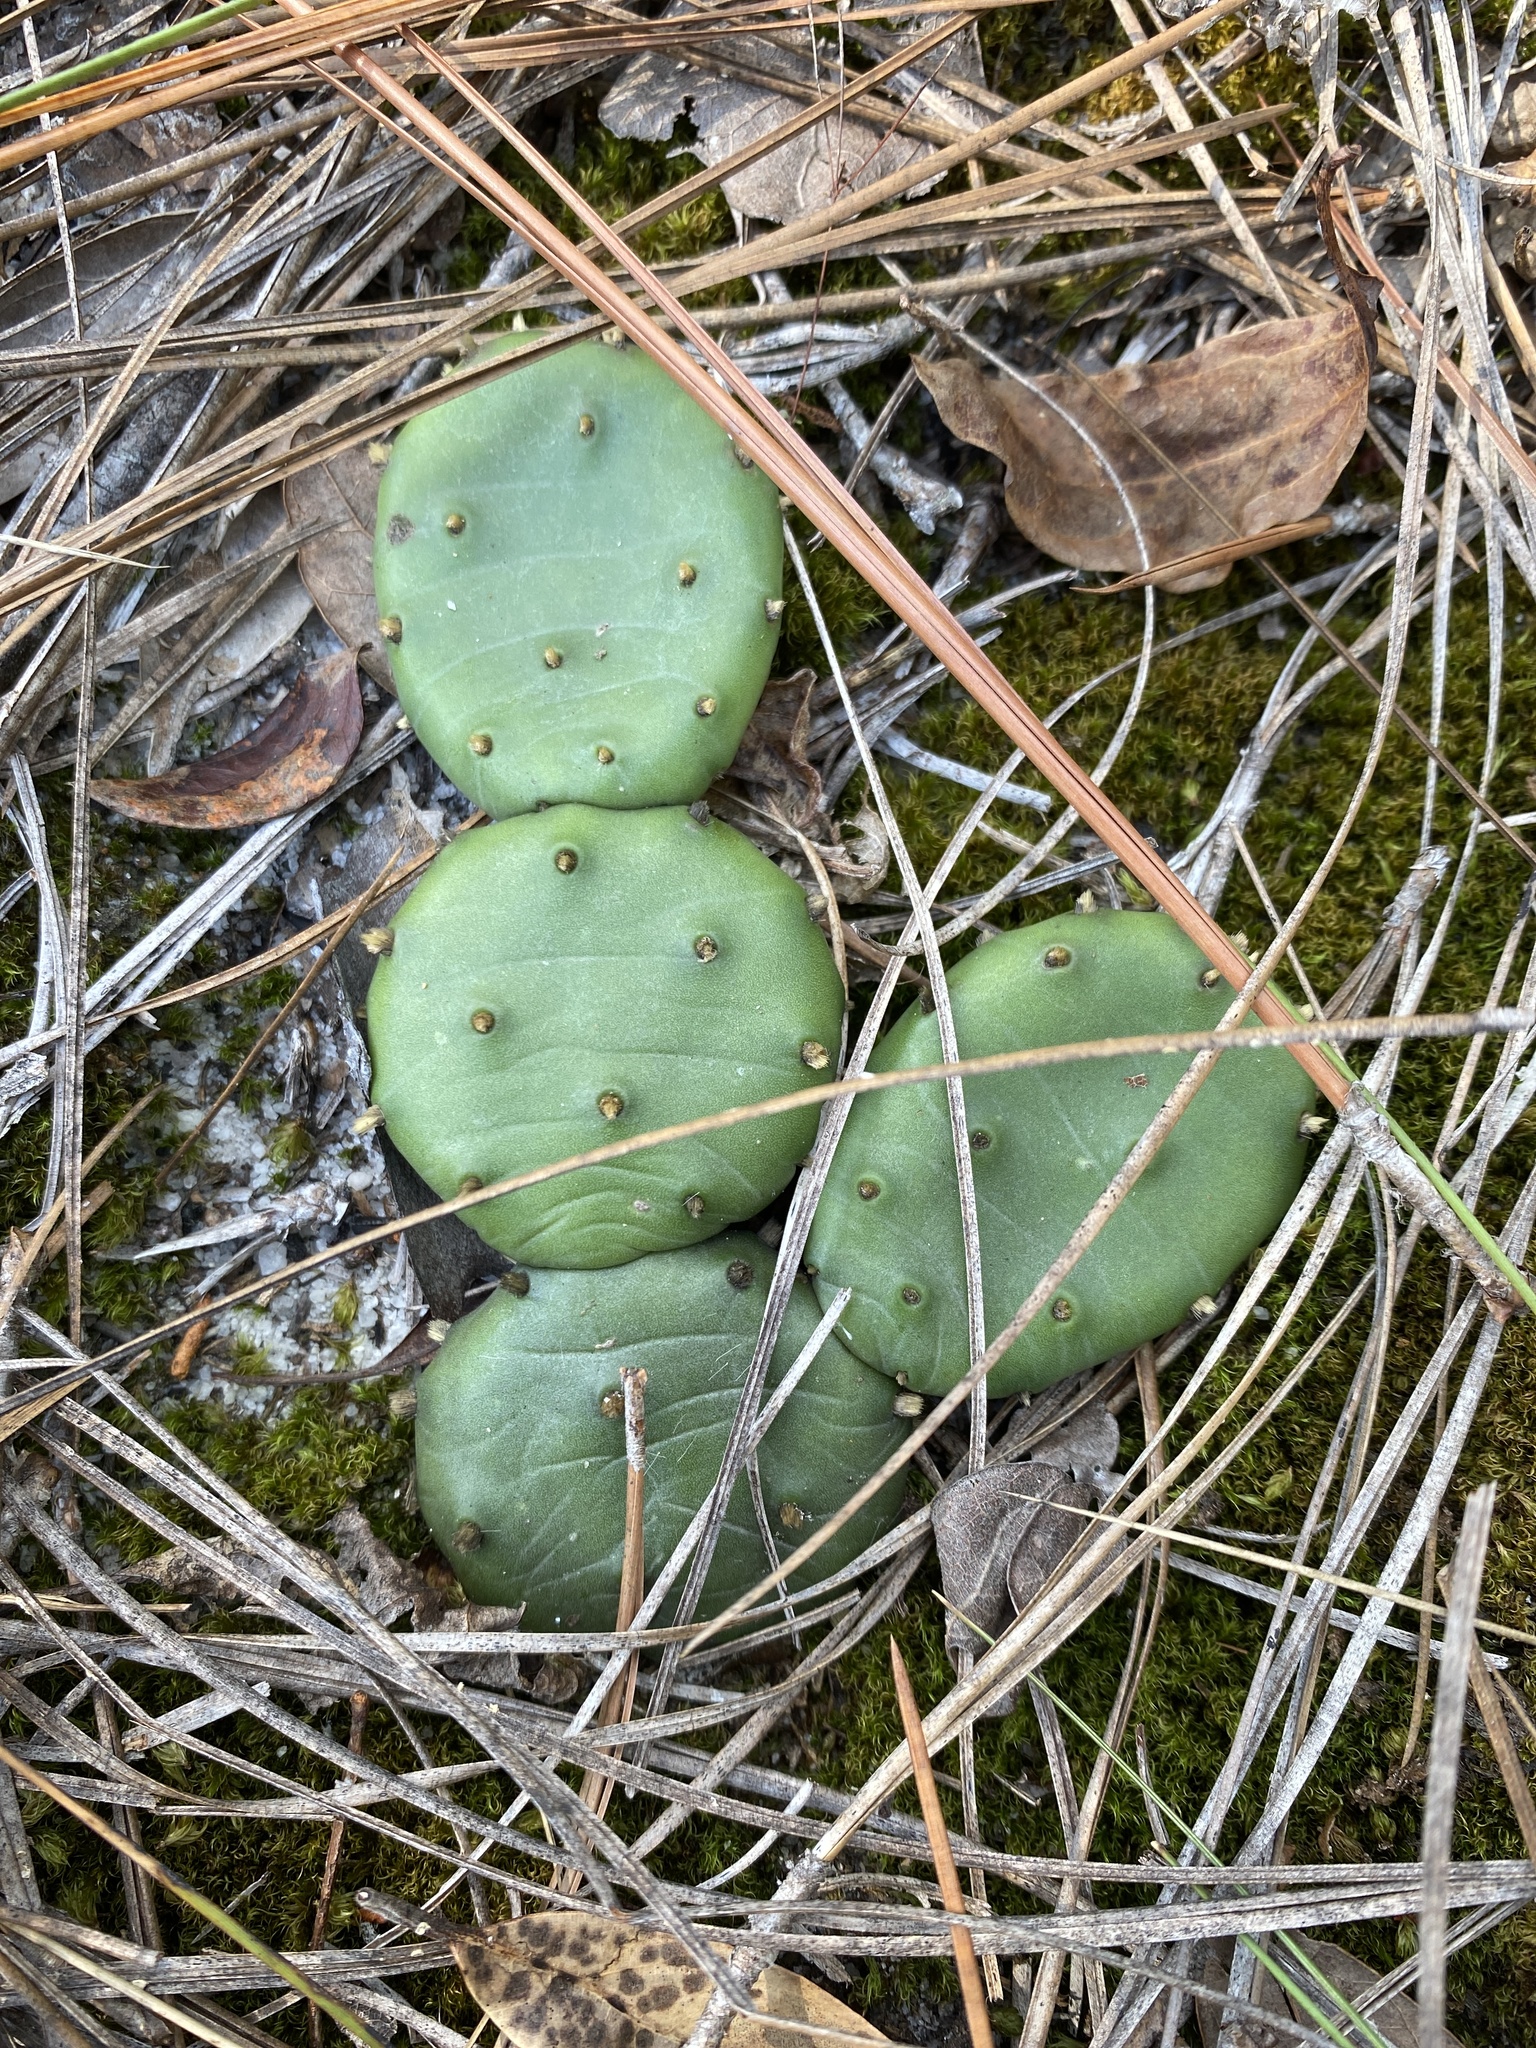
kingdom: Plantae
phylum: Tracheophyta
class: Magnoliopsida
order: Caryophyllales
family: Cactaceae
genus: Opuntia
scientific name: Opuntia mesacantha
